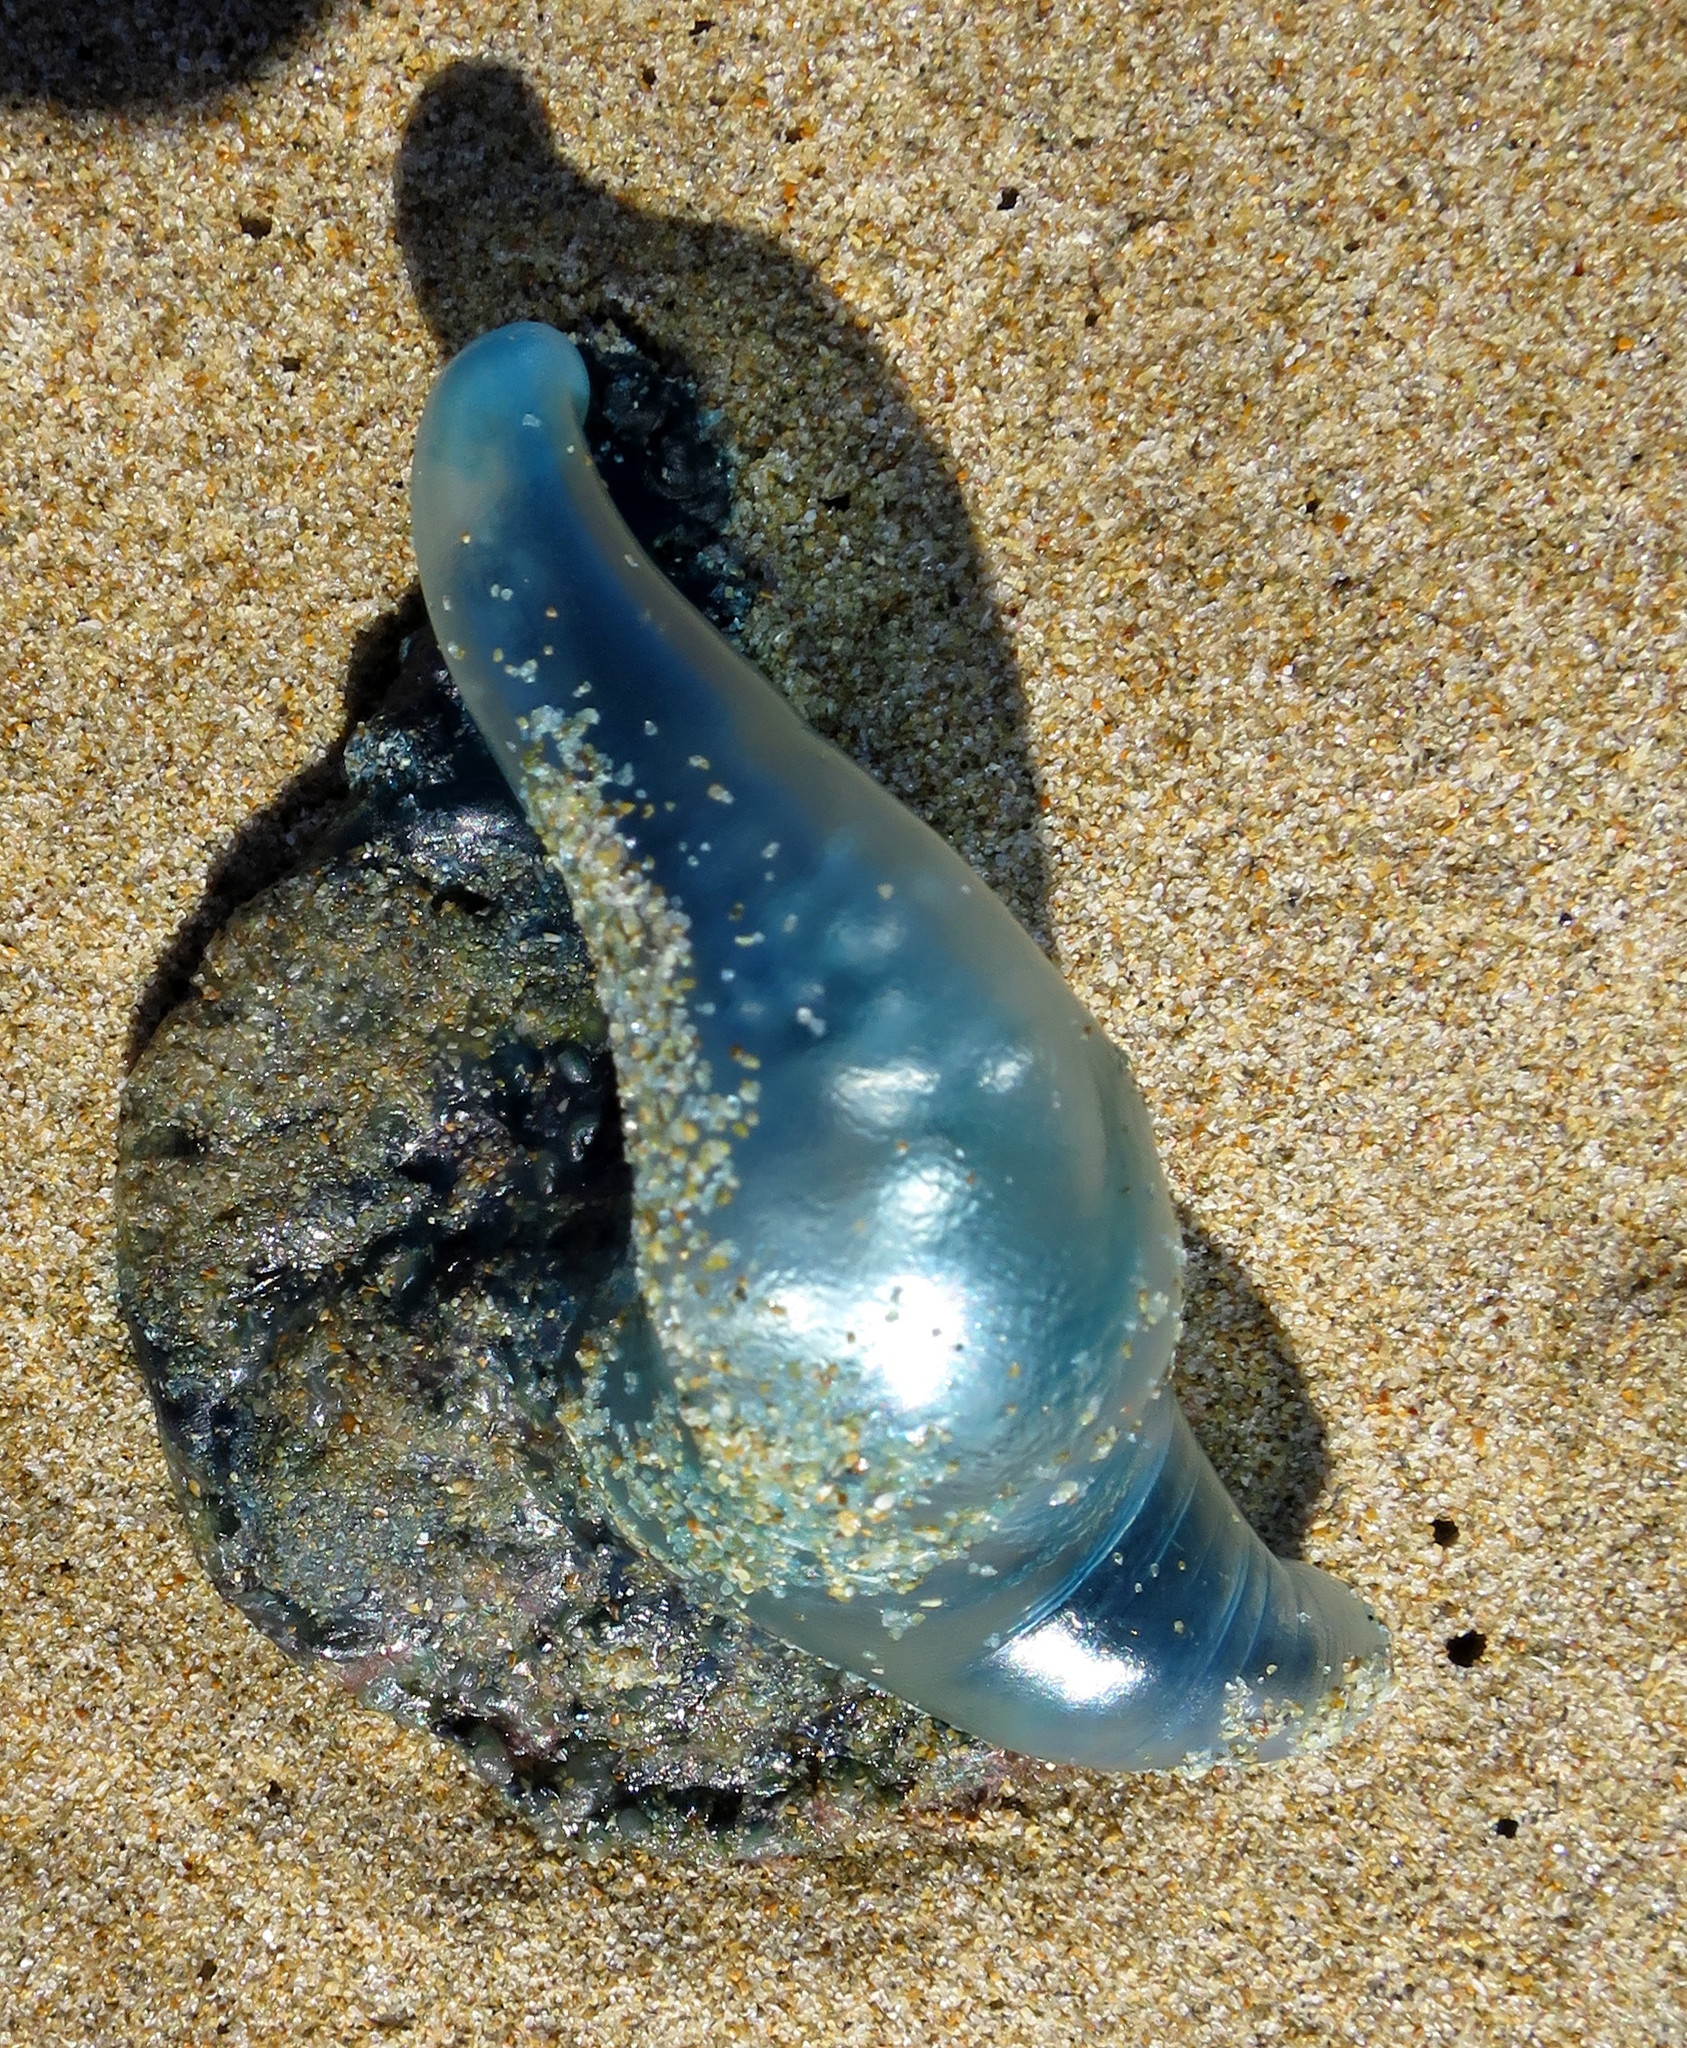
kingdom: Animalia
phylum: Cnidaria
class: Hydrozoa
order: Siphonophorae
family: Physaliidae
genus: Physalia
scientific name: Physalia physalis
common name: Portuguese man-of-war
